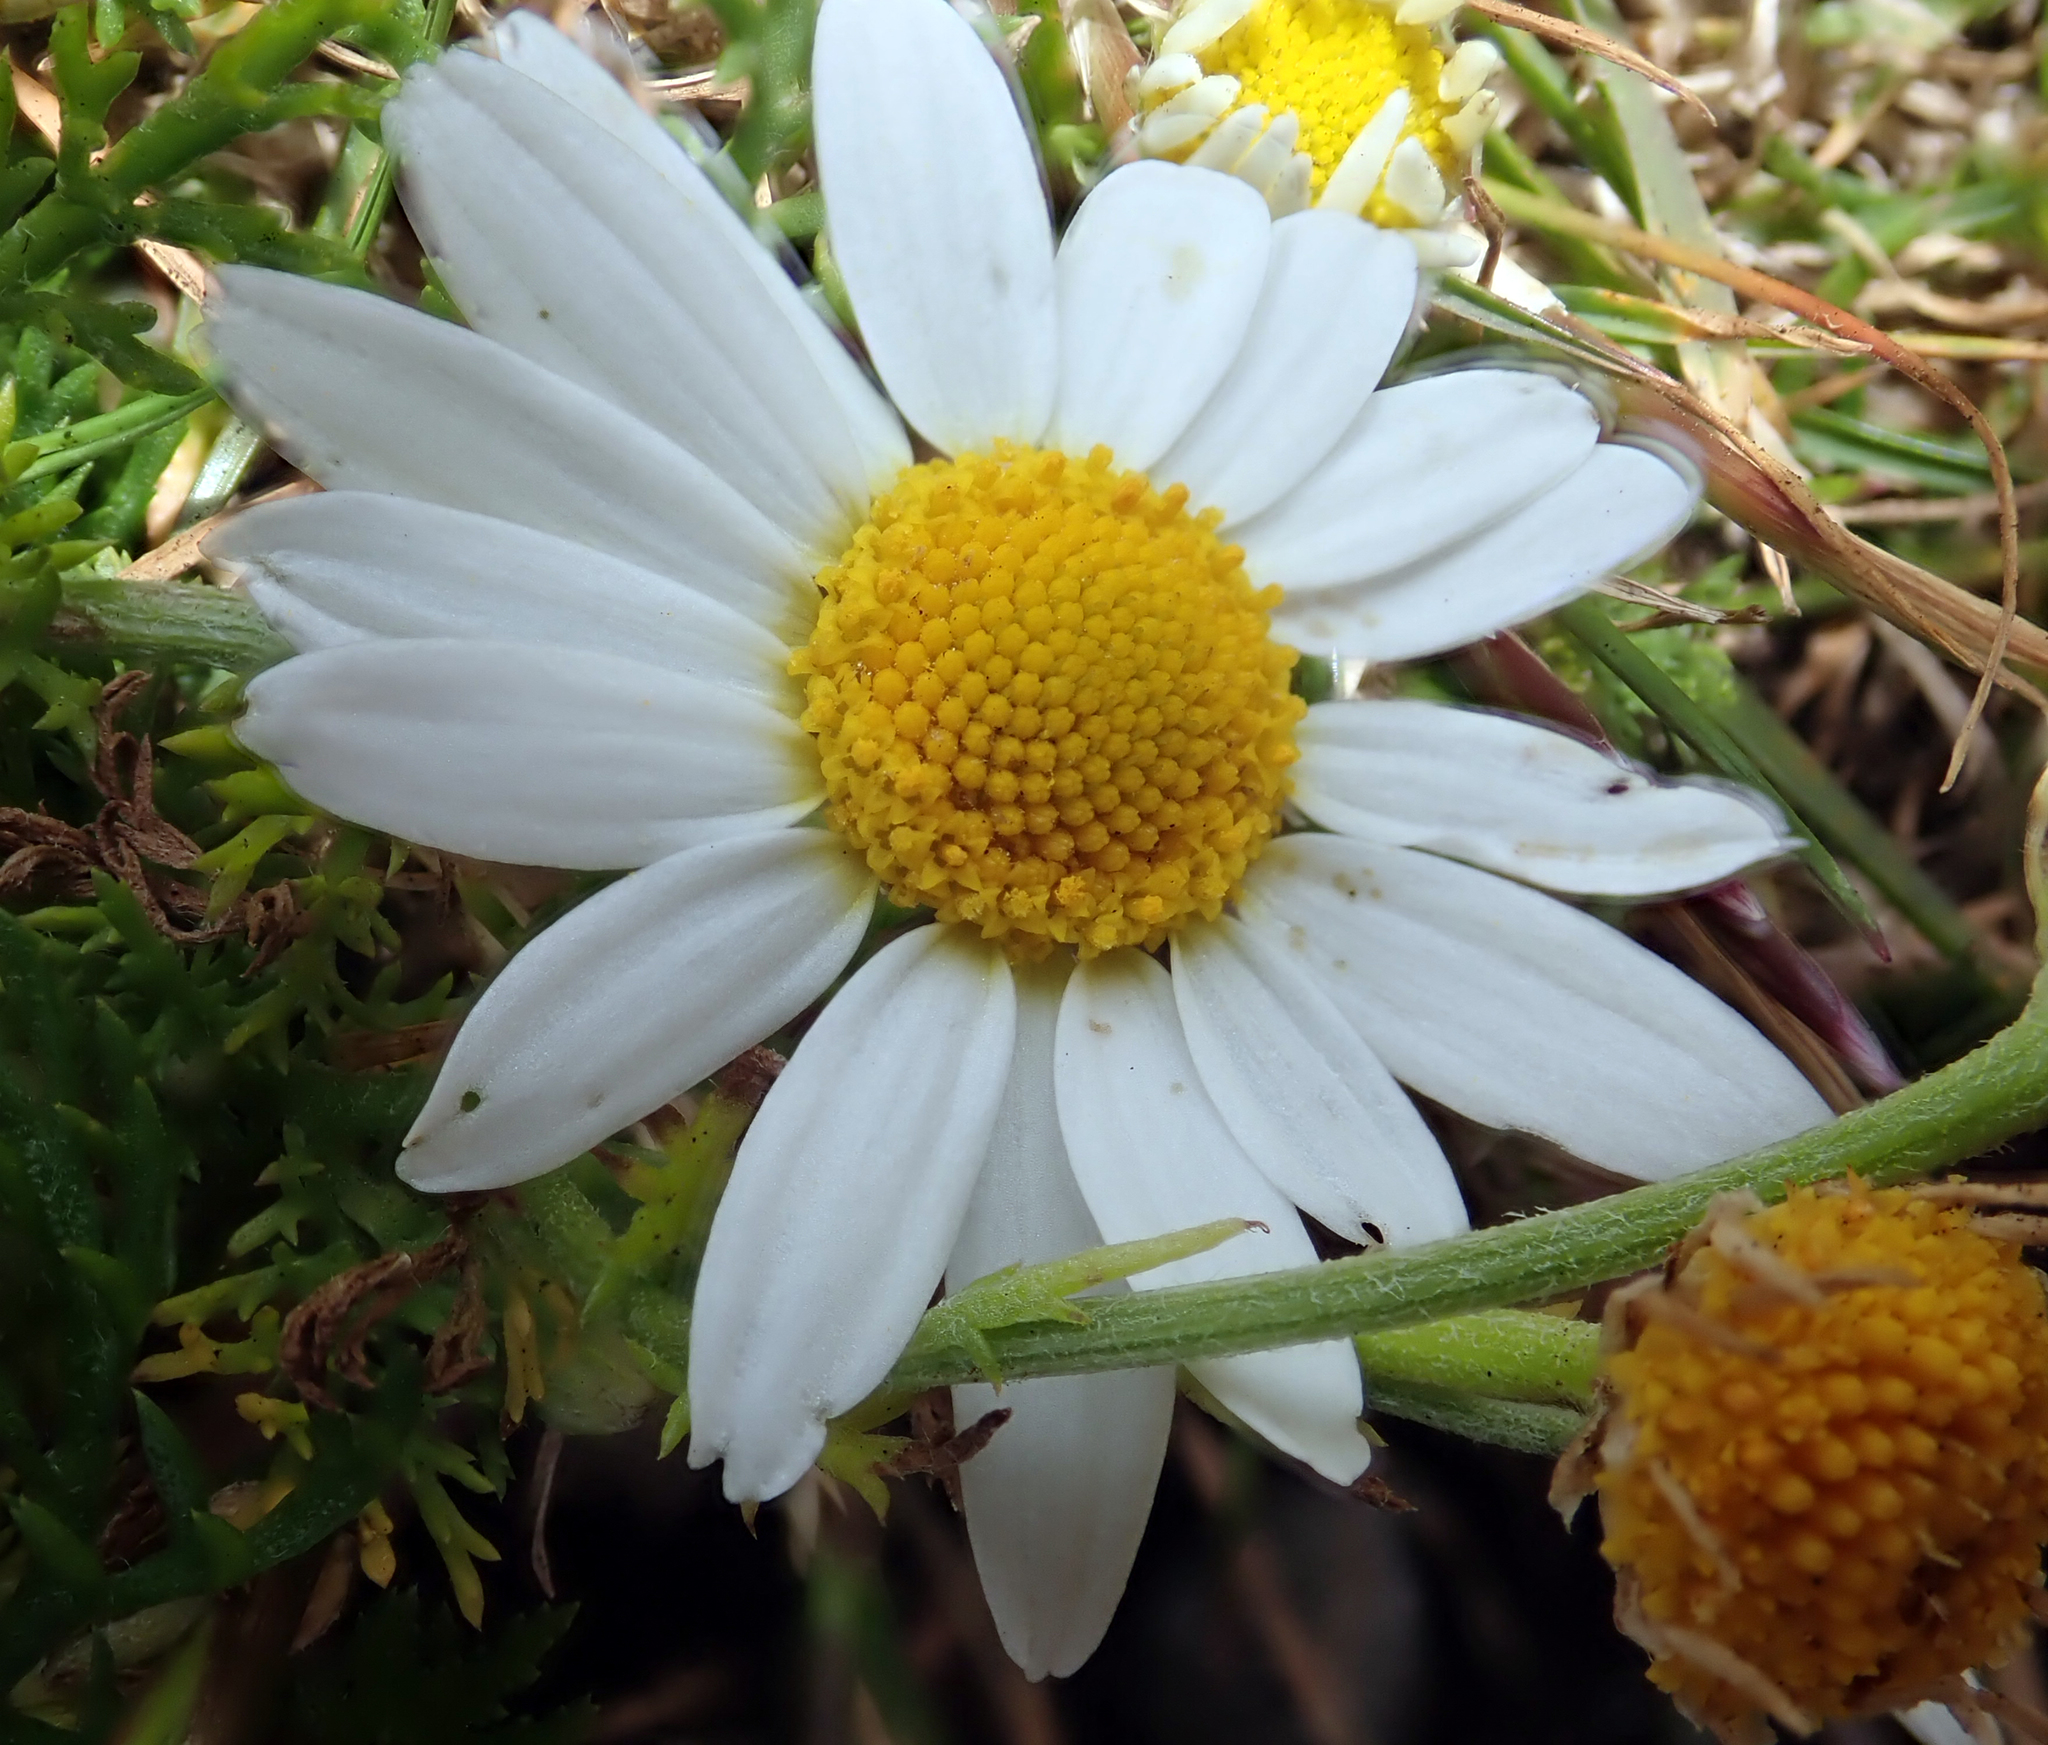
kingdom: Plantae
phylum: Tracheophyta
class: Magnoliopsida
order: Asterales
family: Asteraceae
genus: Anthemis
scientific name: Anthemis cotula
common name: Stinking chamomile
